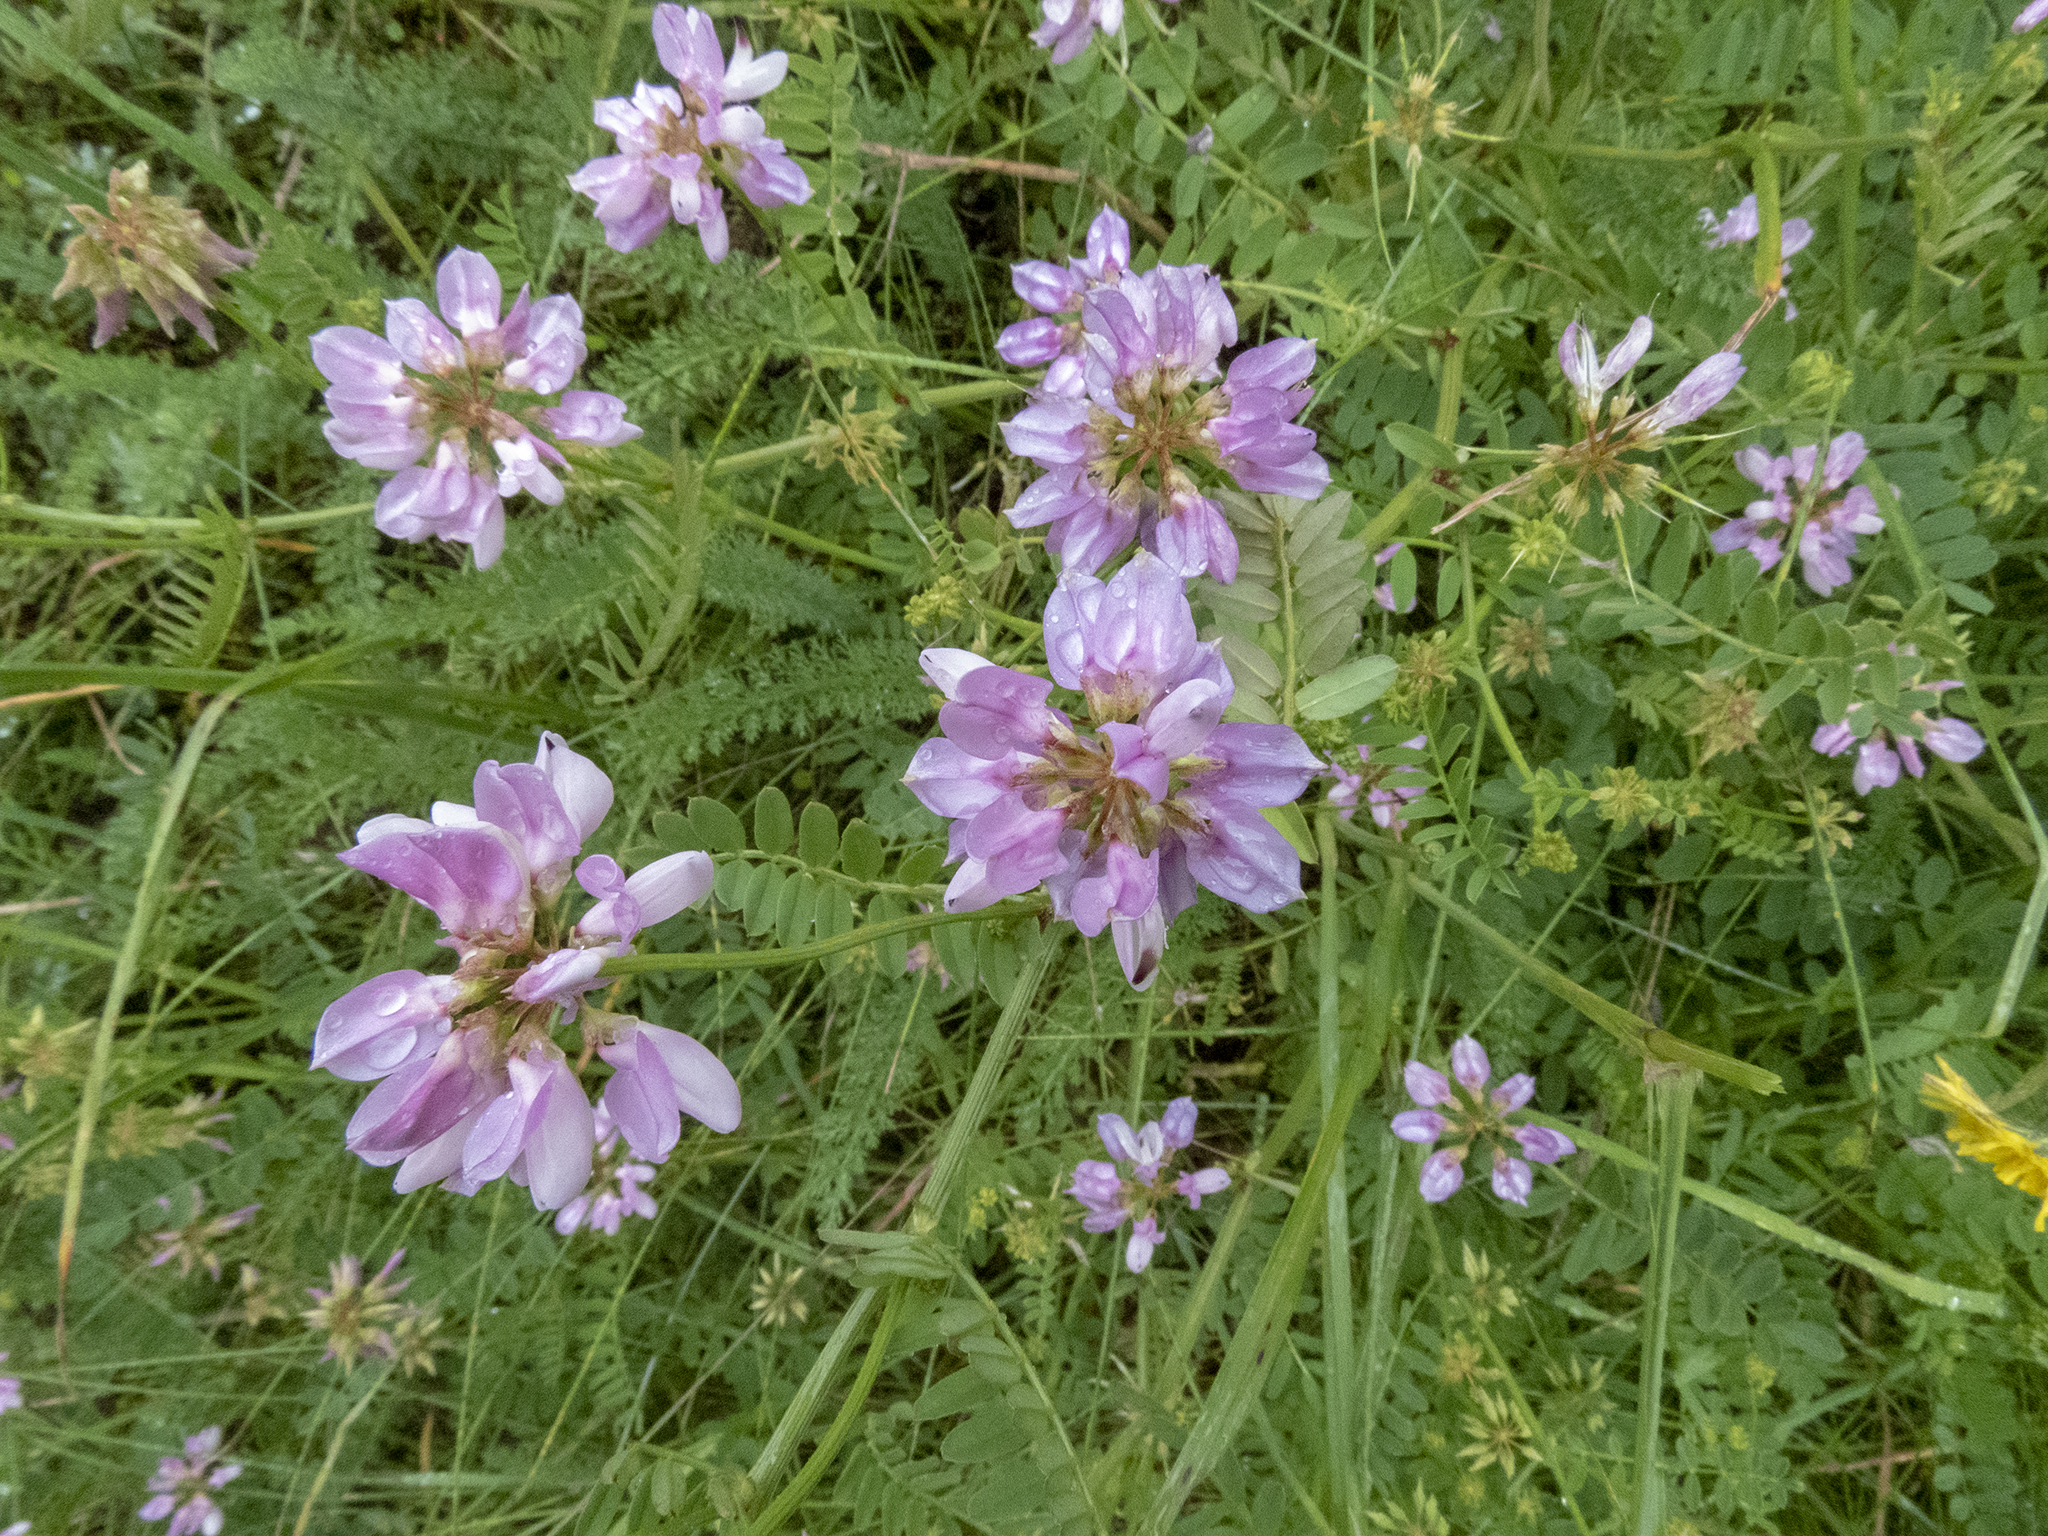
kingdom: Plantae
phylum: Tracheophyta
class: Magnoliopsida
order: Fabales
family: Fabaceae
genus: Coronilla
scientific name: Coronilla varia
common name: Crownvetch
